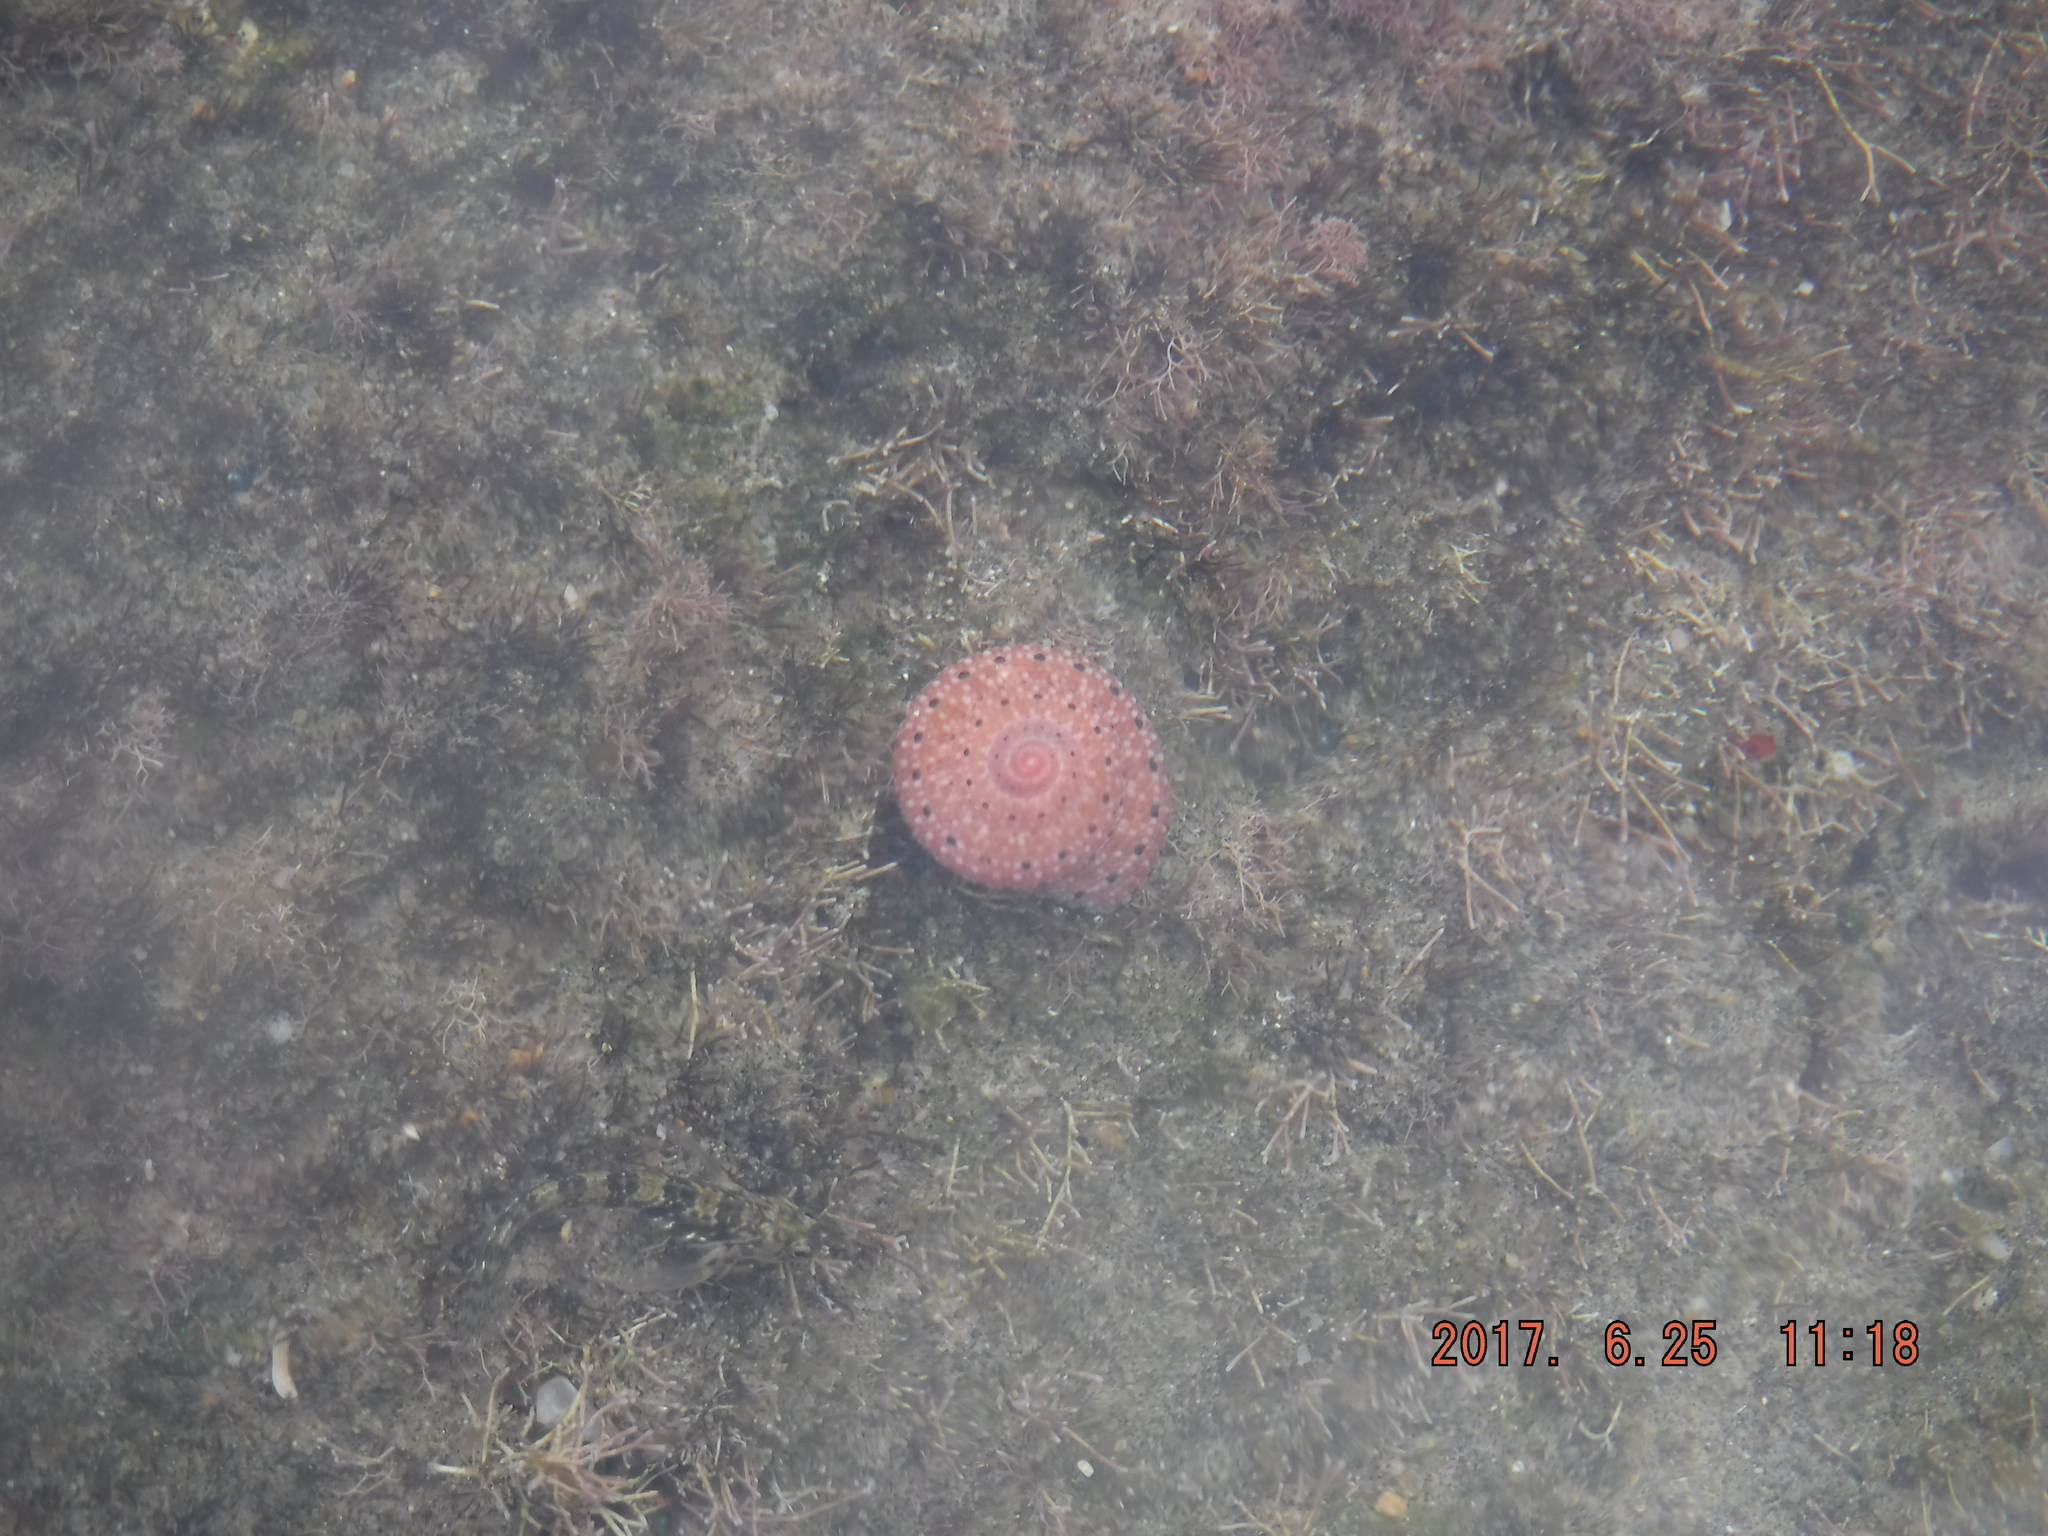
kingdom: Animalia
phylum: Mollusca
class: Gastropoda
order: Trochida
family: Trochidae
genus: Clanculus
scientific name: Clanculus puniceus
